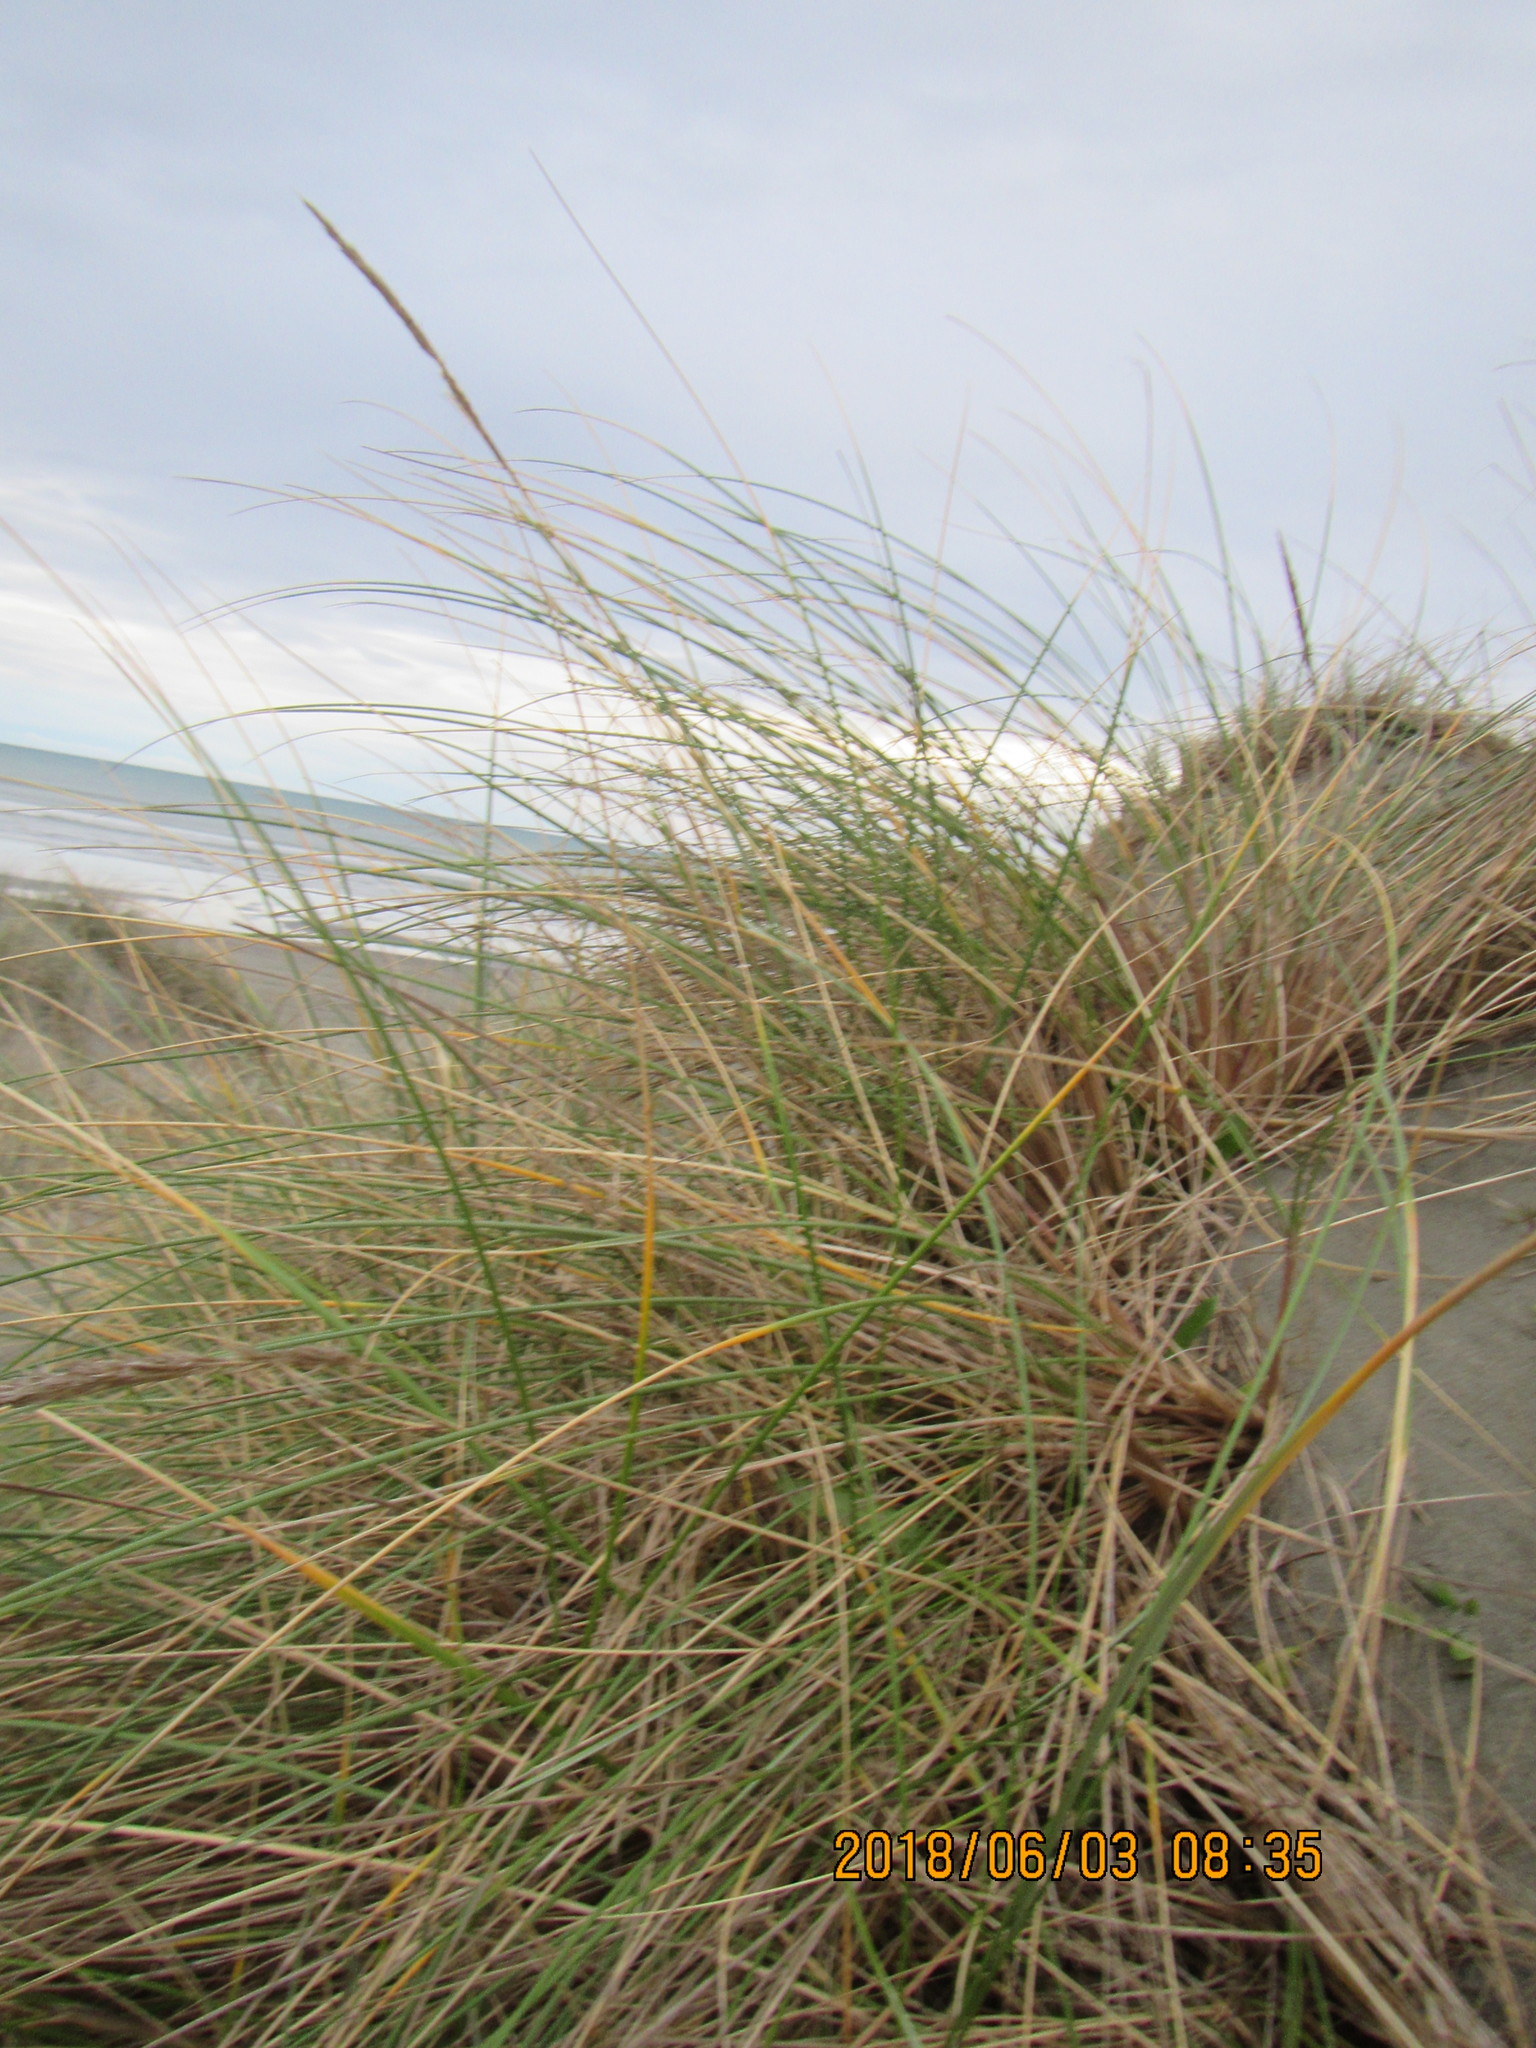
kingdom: Plantae
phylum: Tracheophyta
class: Liliopsida
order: Poales
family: Poaceae
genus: Calamagrostis
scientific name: Calamagrostis arenaria
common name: European beachgrass
